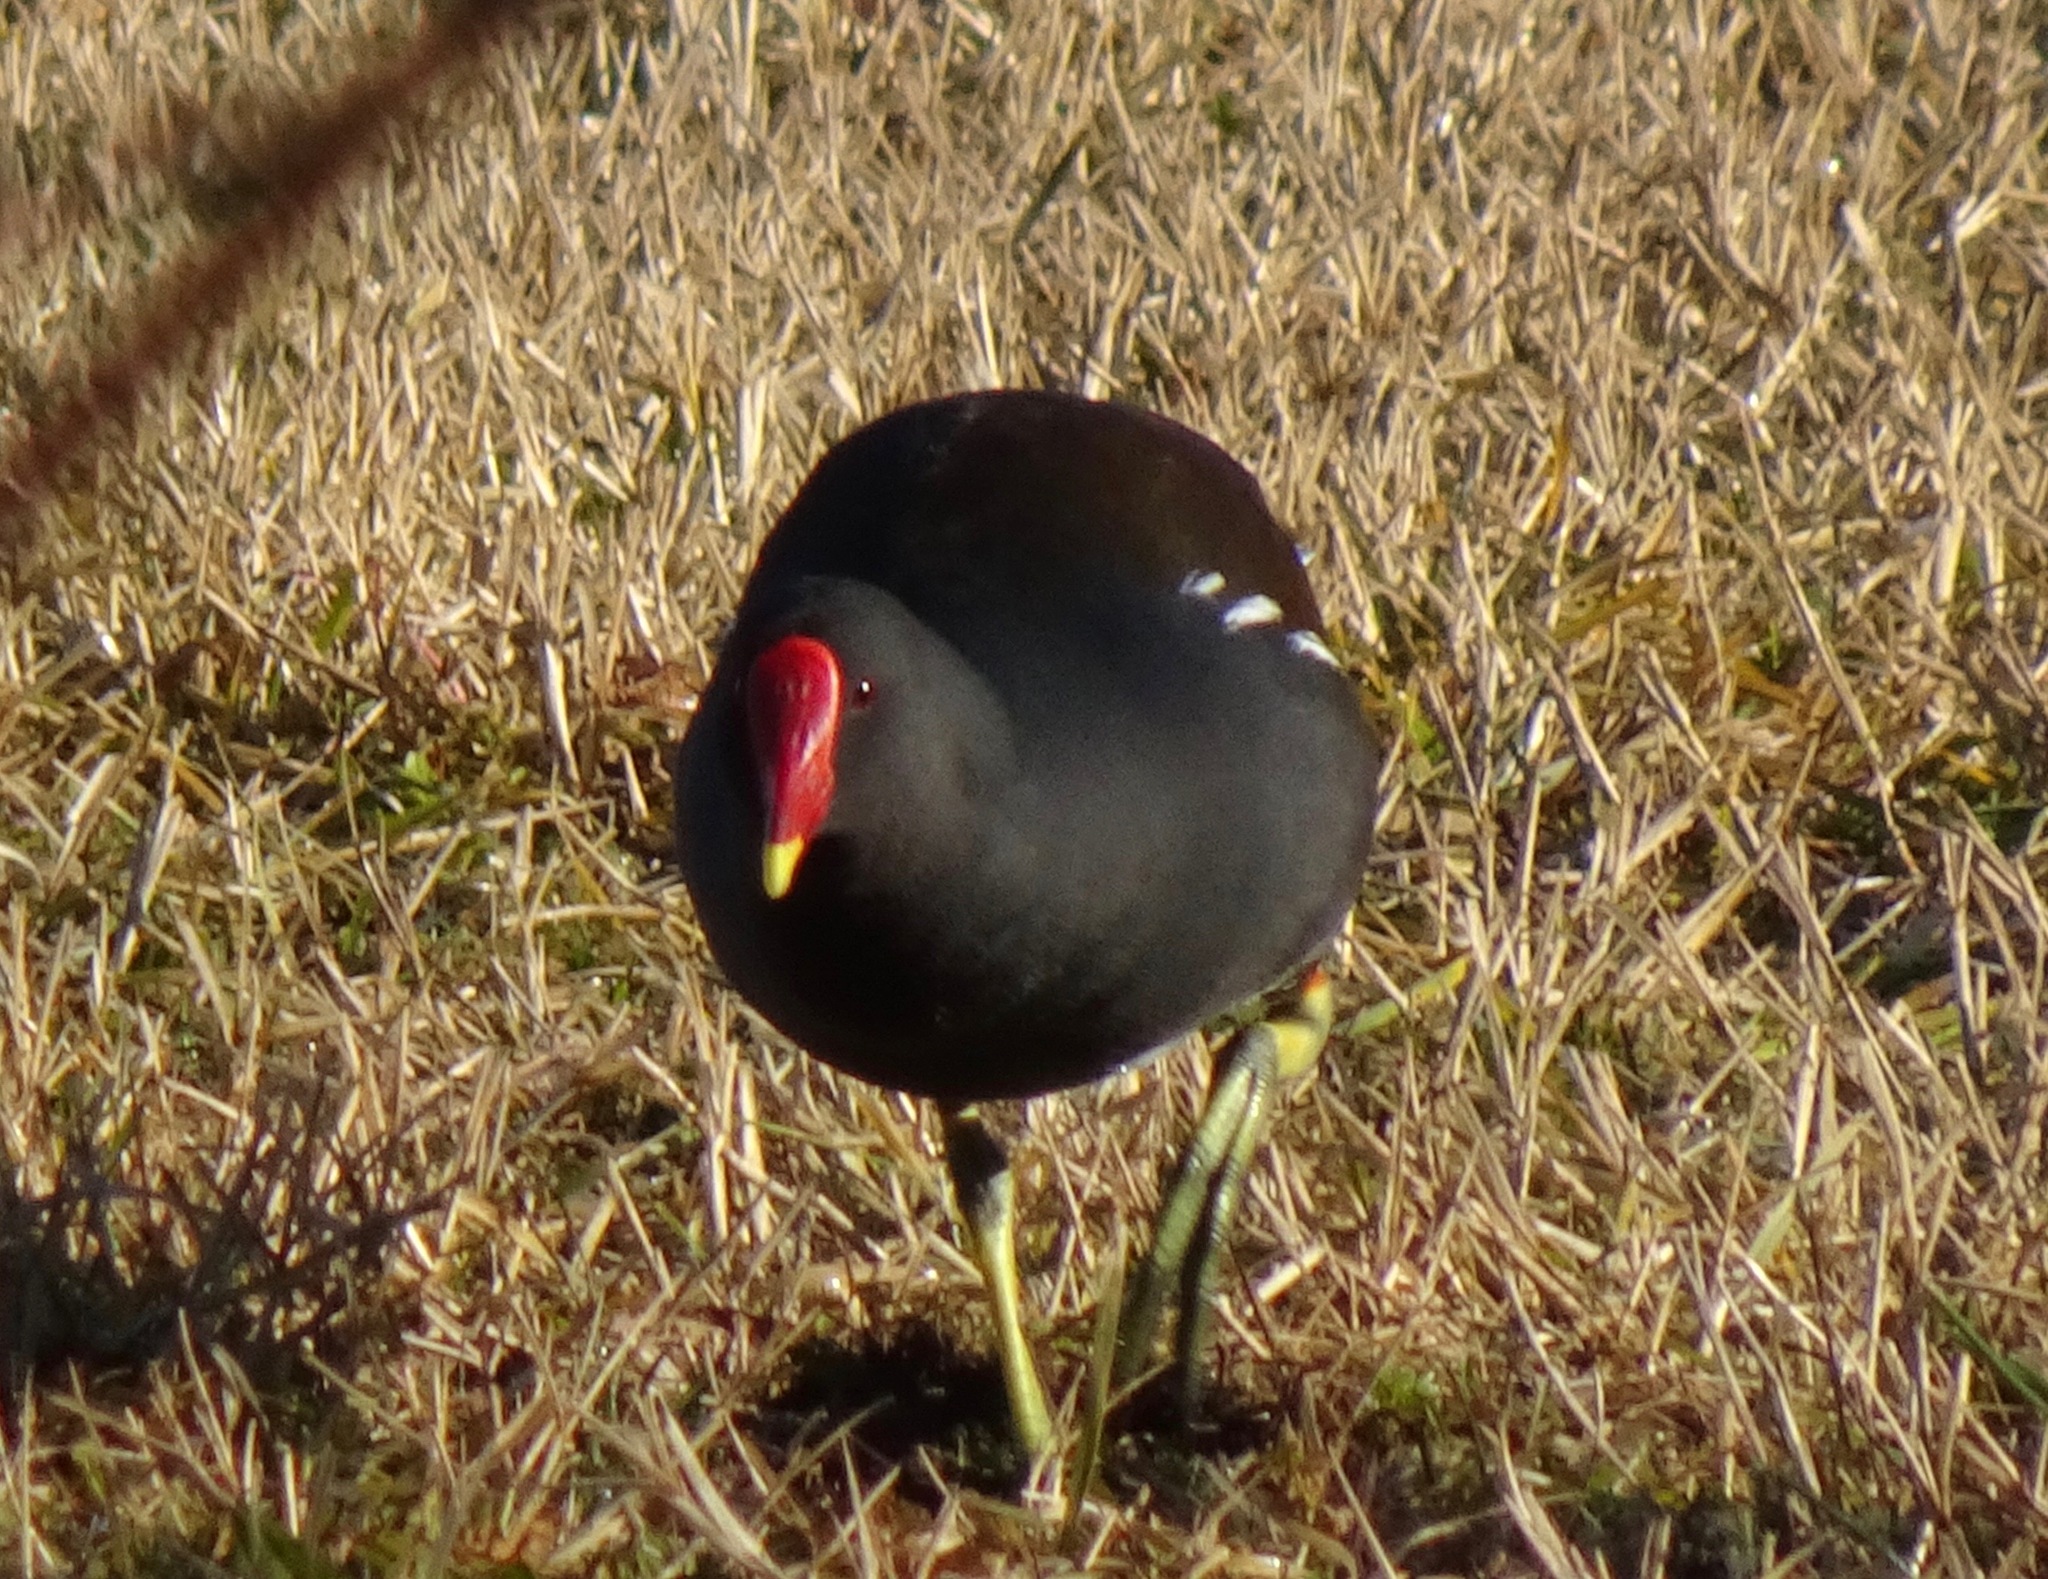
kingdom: Animalia
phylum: Chordata
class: Aves
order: Gruiformes
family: Rallidae
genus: Gallinula
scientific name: Gallinula chloropus
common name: Common moorhen
